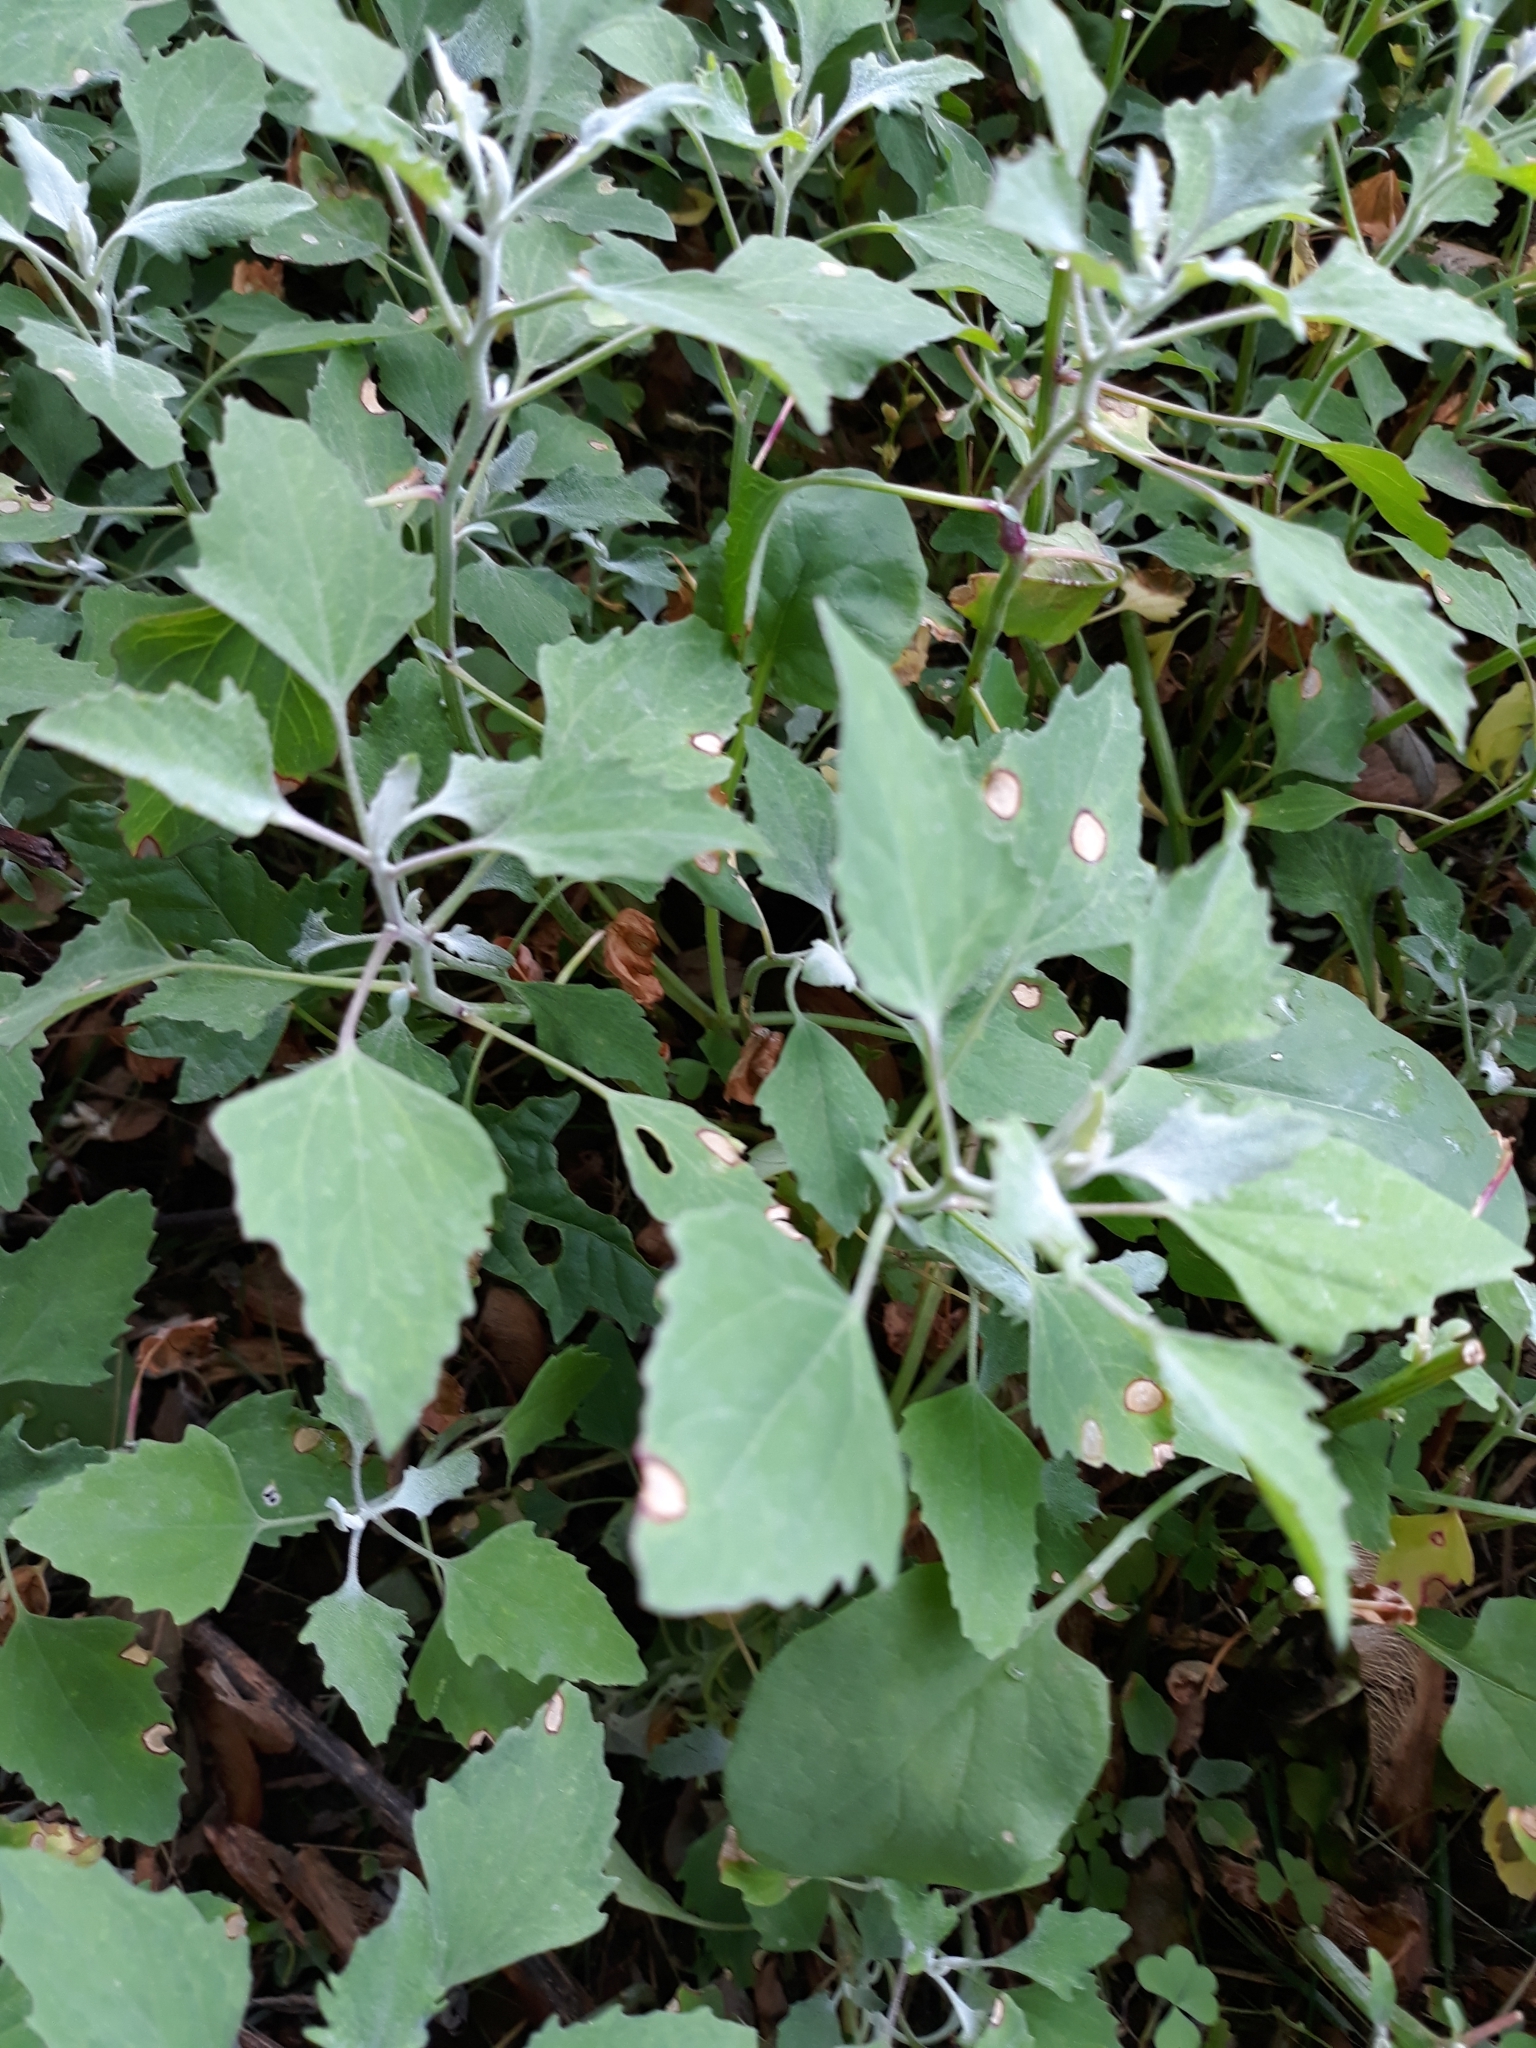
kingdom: Plantae
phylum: Tracheophyta
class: Magnoliopsida
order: Caryophyllales
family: Amaranthaceae
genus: Chenopodium
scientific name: Chenopodium album
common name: Fat-hen
